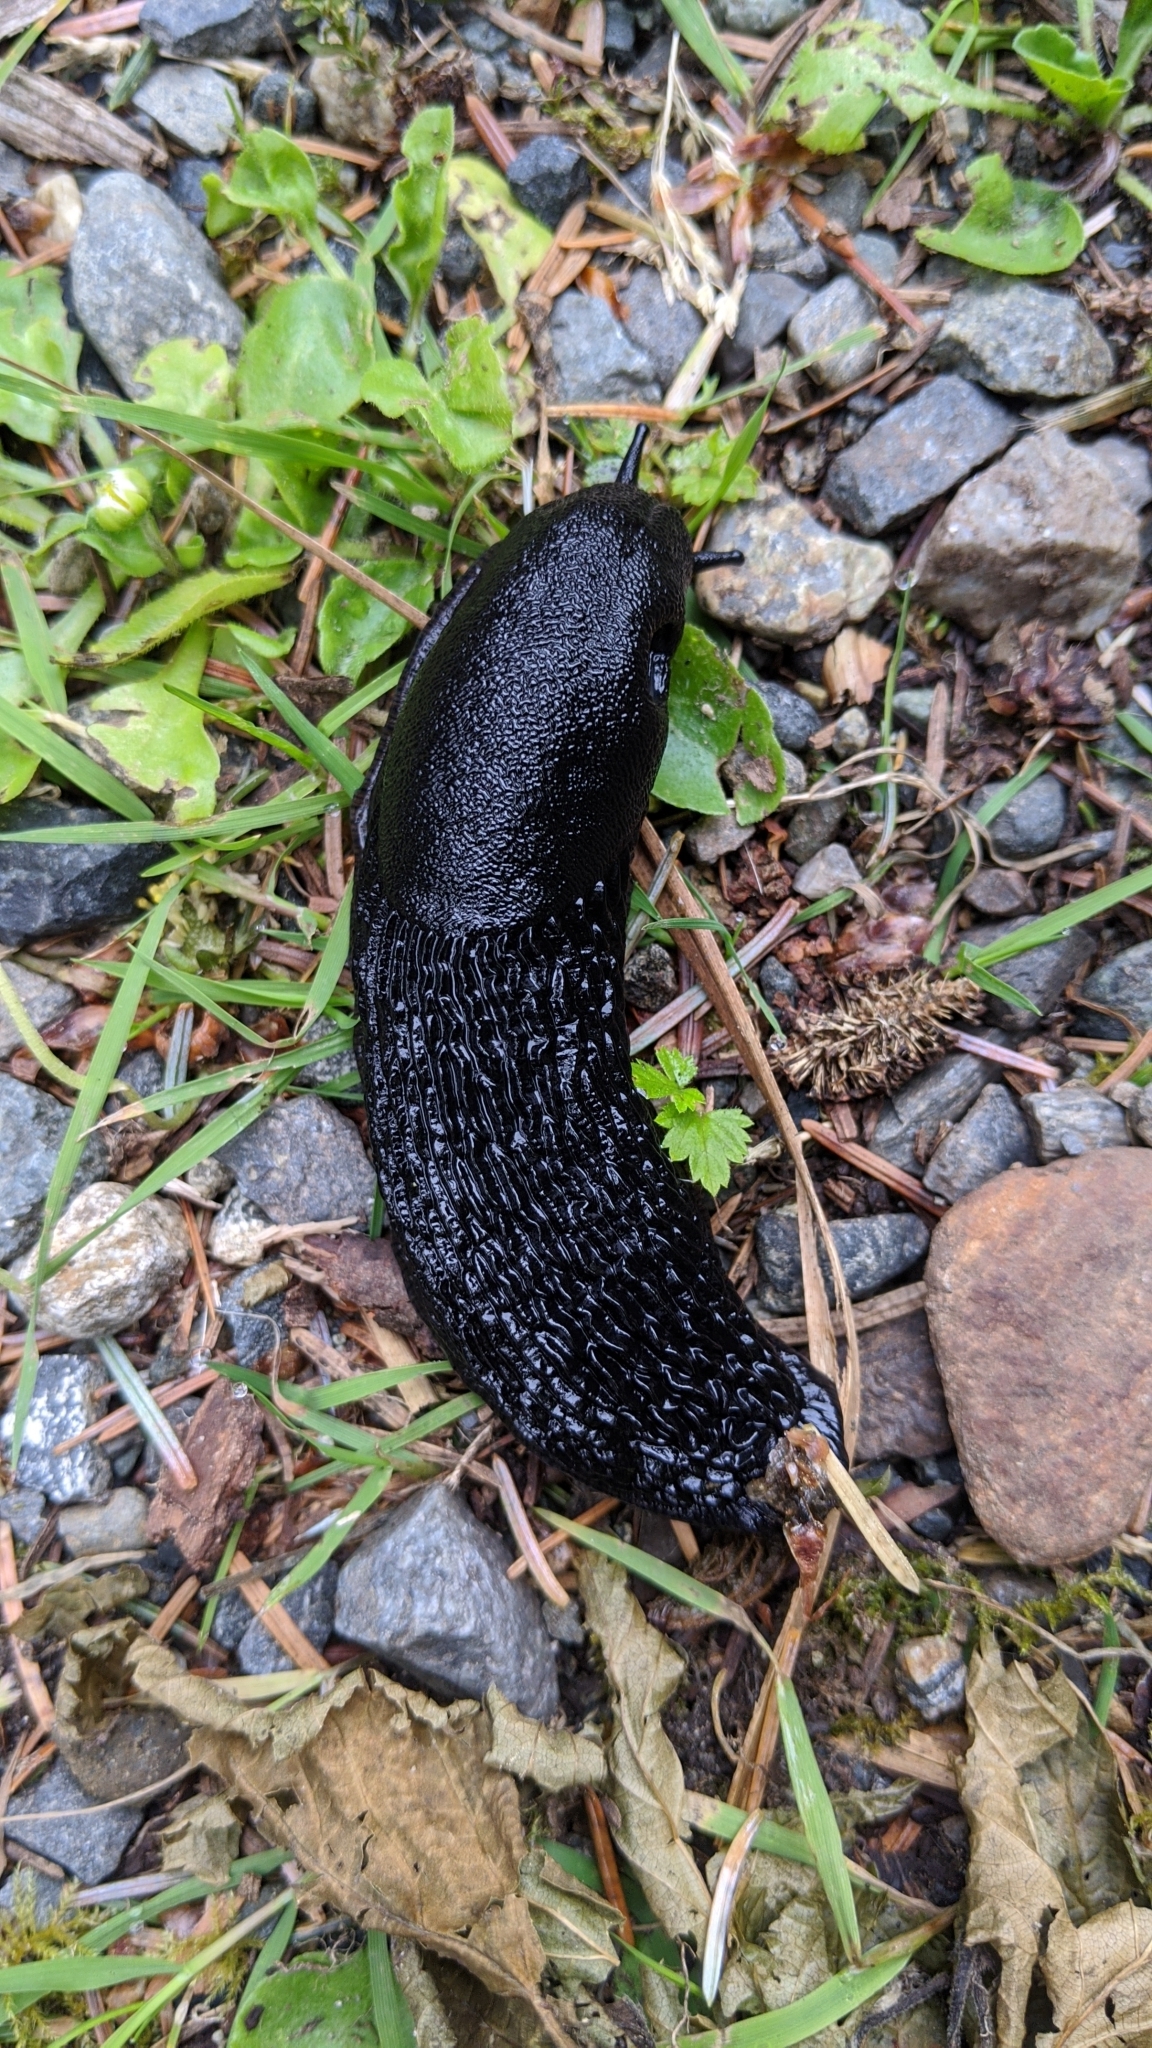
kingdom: Animalia
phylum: Mollusca
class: Gastropoda
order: Stylommatophora
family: Arionidae
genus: Arion
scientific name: Arion rufus
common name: Chocolate arion
